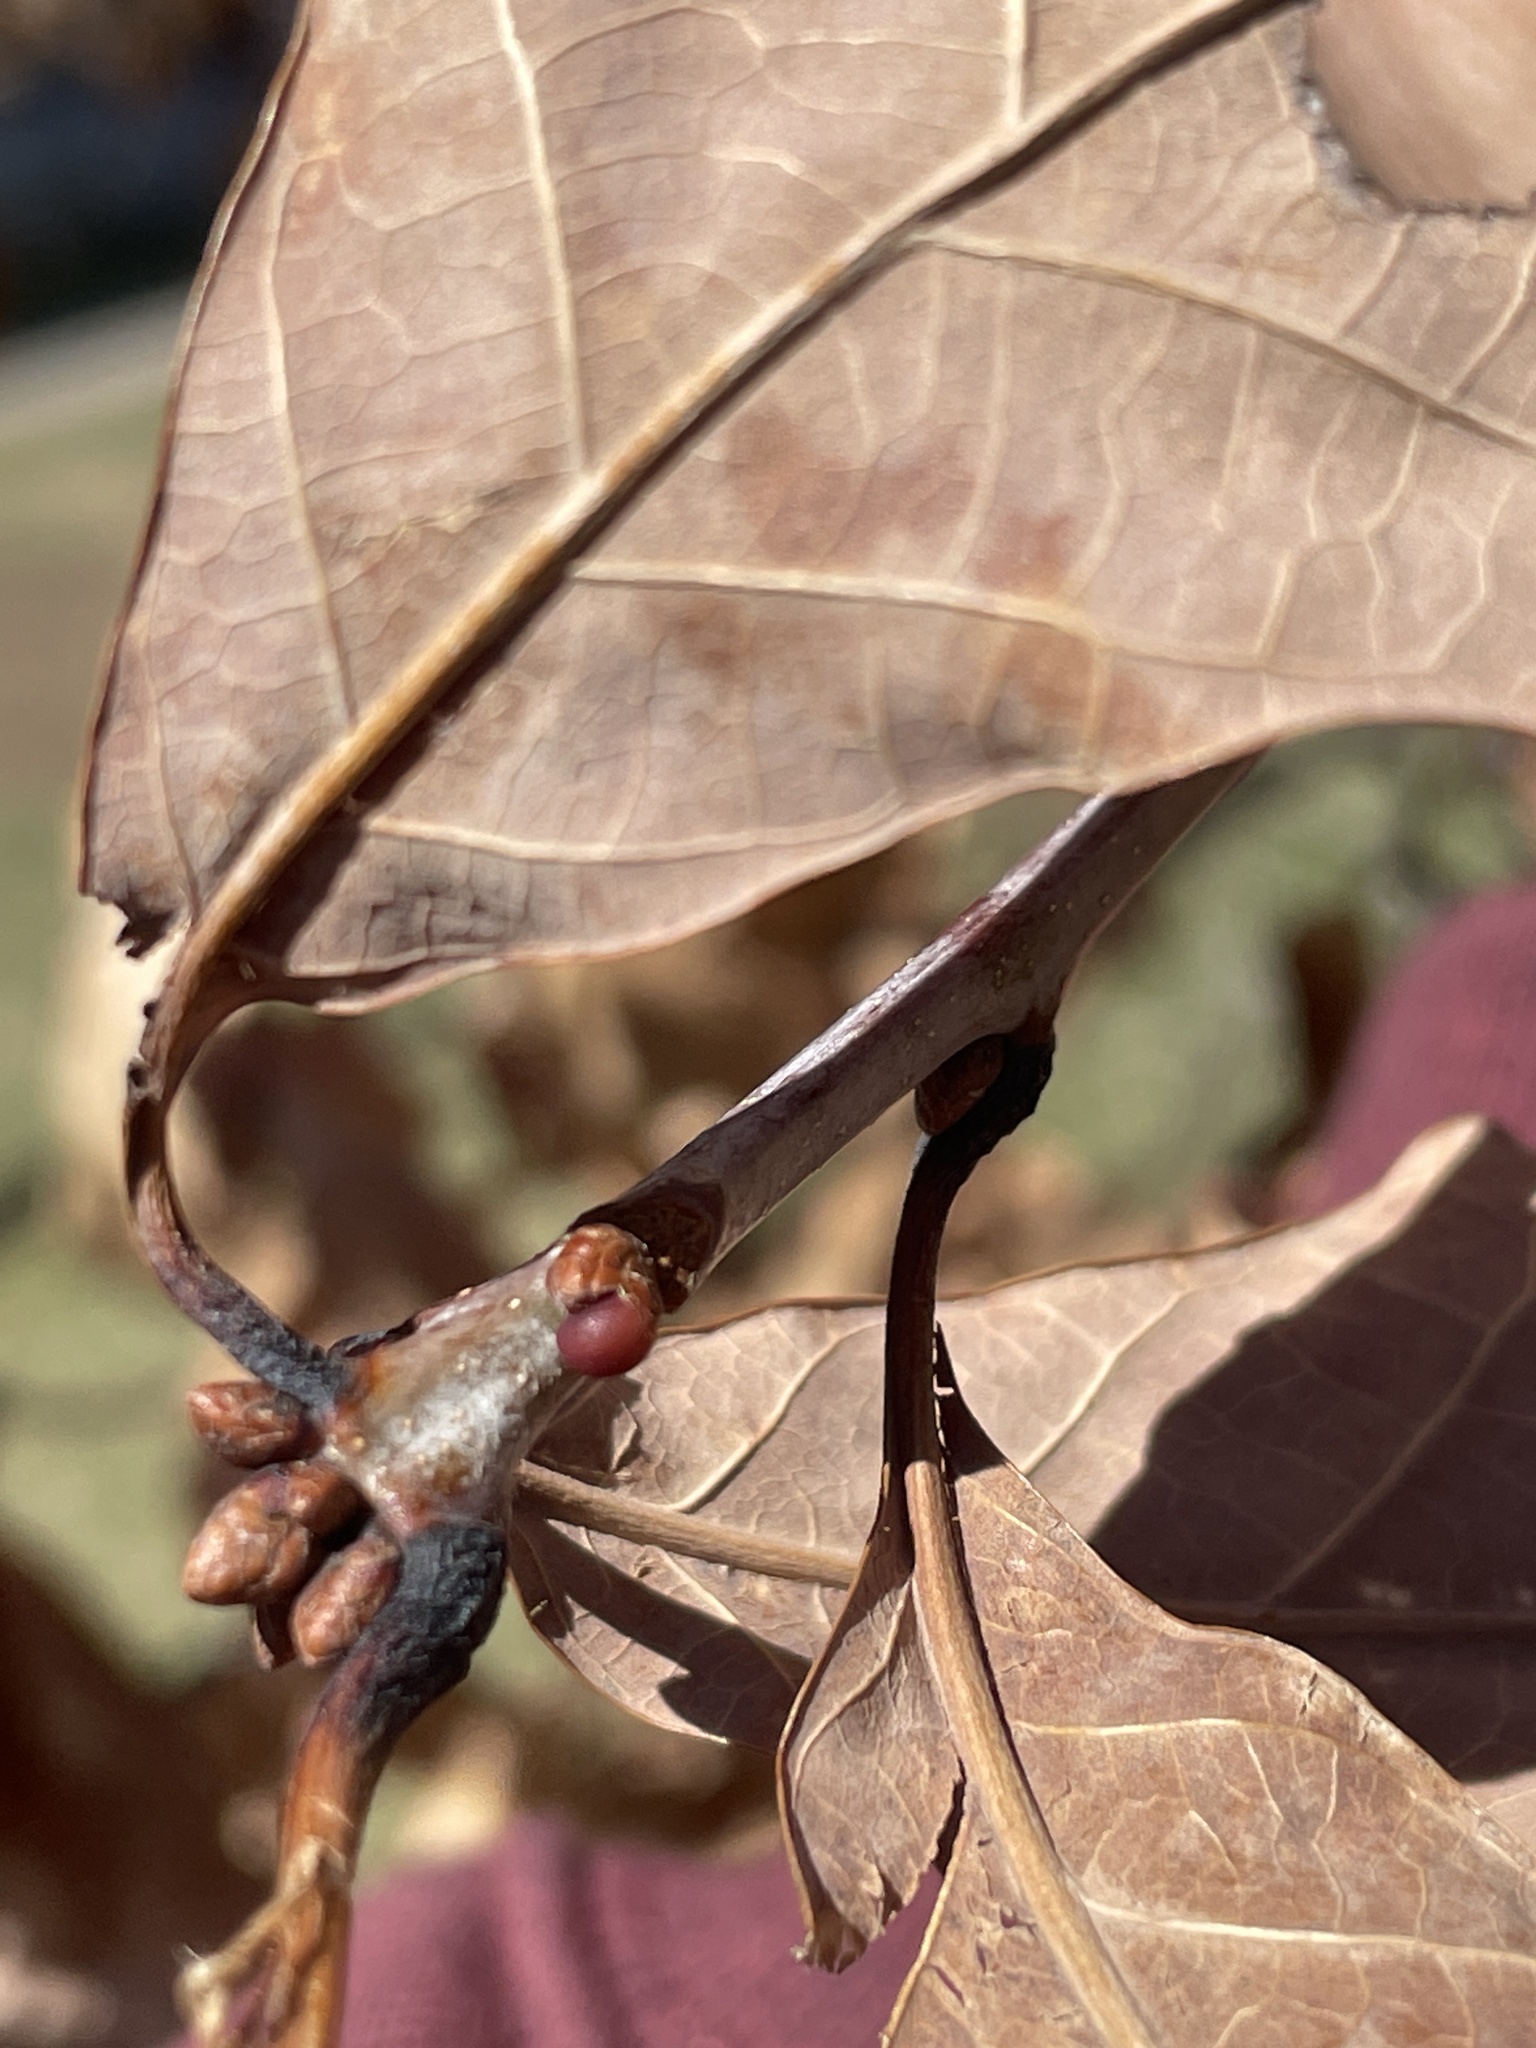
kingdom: Animalia
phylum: Arthropoda
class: Insecta
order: Hymenoptera
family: Cynipidae
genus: Neuroterus
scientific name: Neuroterus
